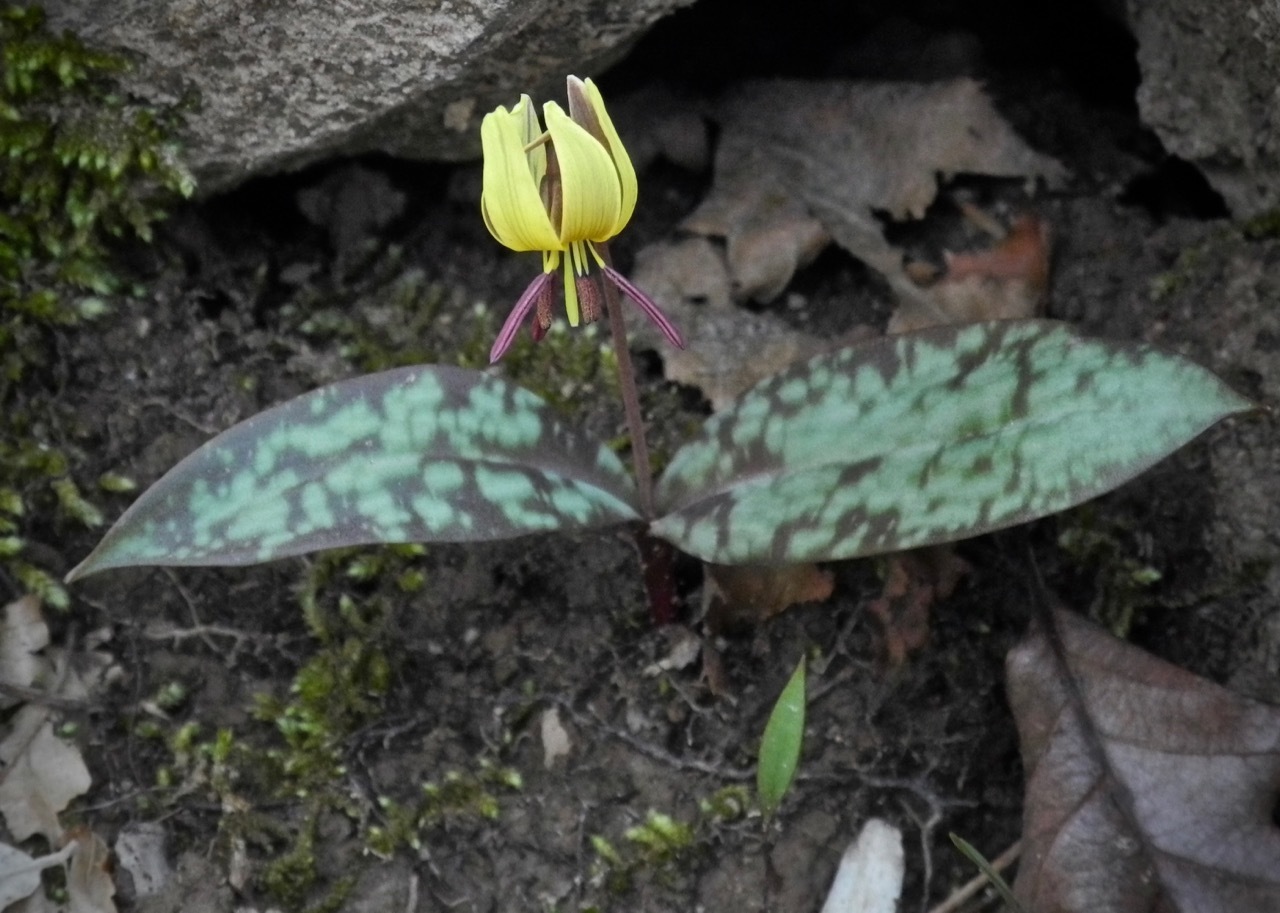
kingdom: Plantae
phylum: Tracheophyta
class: Liliopsida
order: Liliales
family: Liliaceae
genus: Erythronium
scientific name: Erythronium umbilicatum
